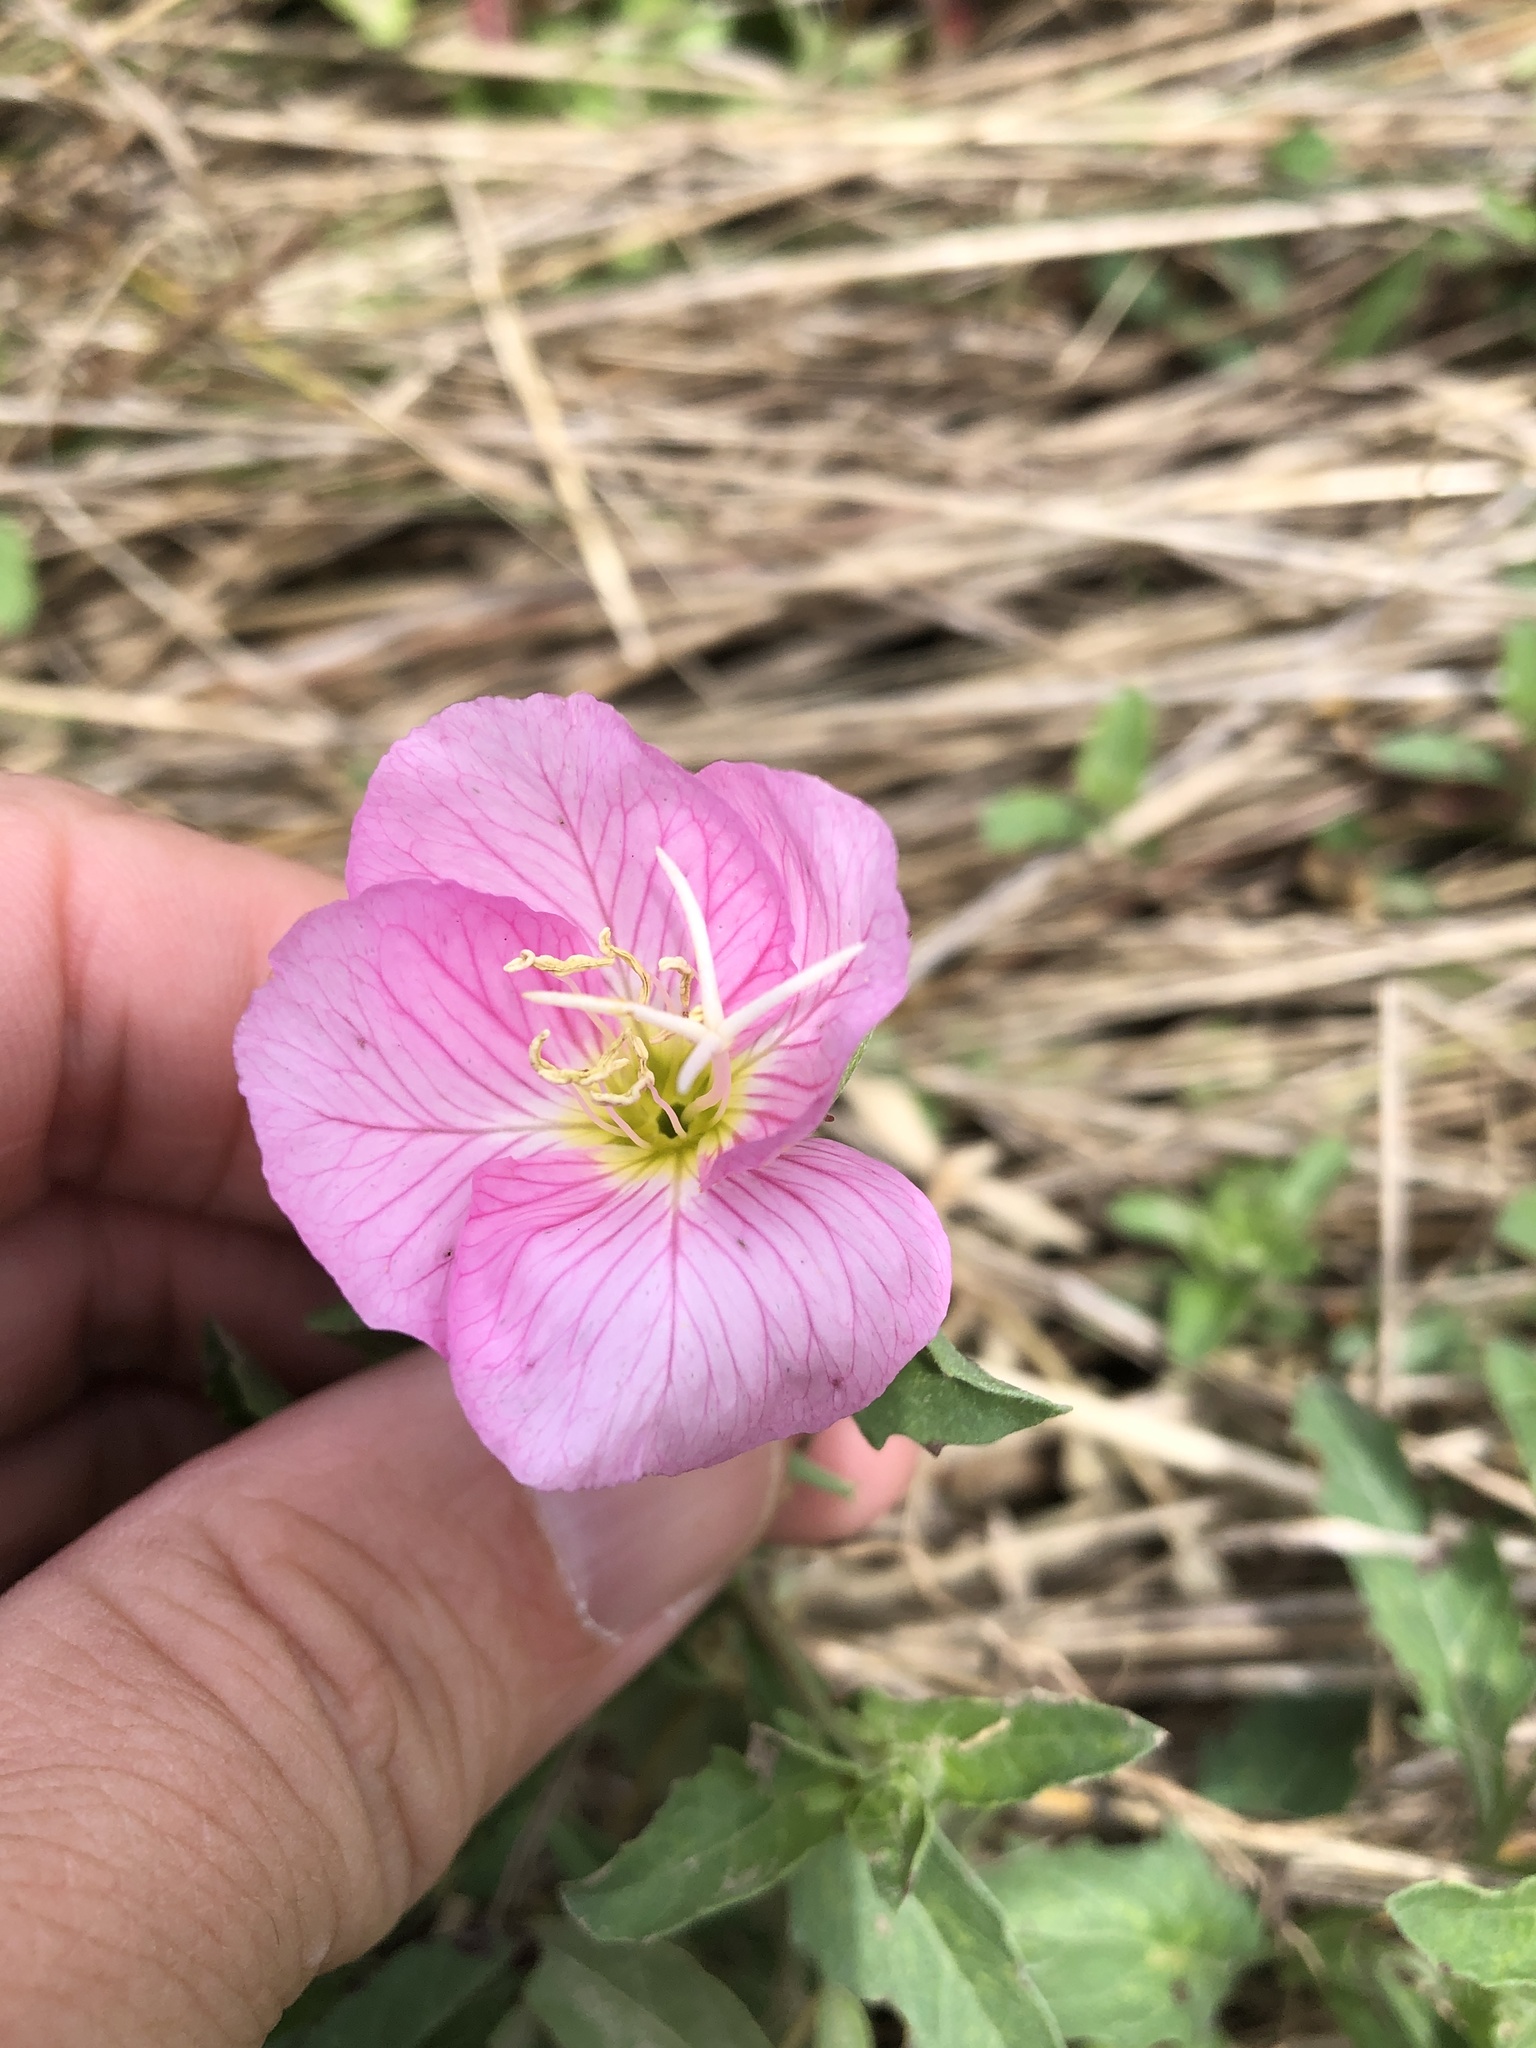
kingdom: Plantae
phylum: Tracheophyta
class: Magnoliopsida
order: Myrtales
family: Onagraceae
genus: Oenothera
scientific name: Oenothera speciosa
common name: White evening-primrose
